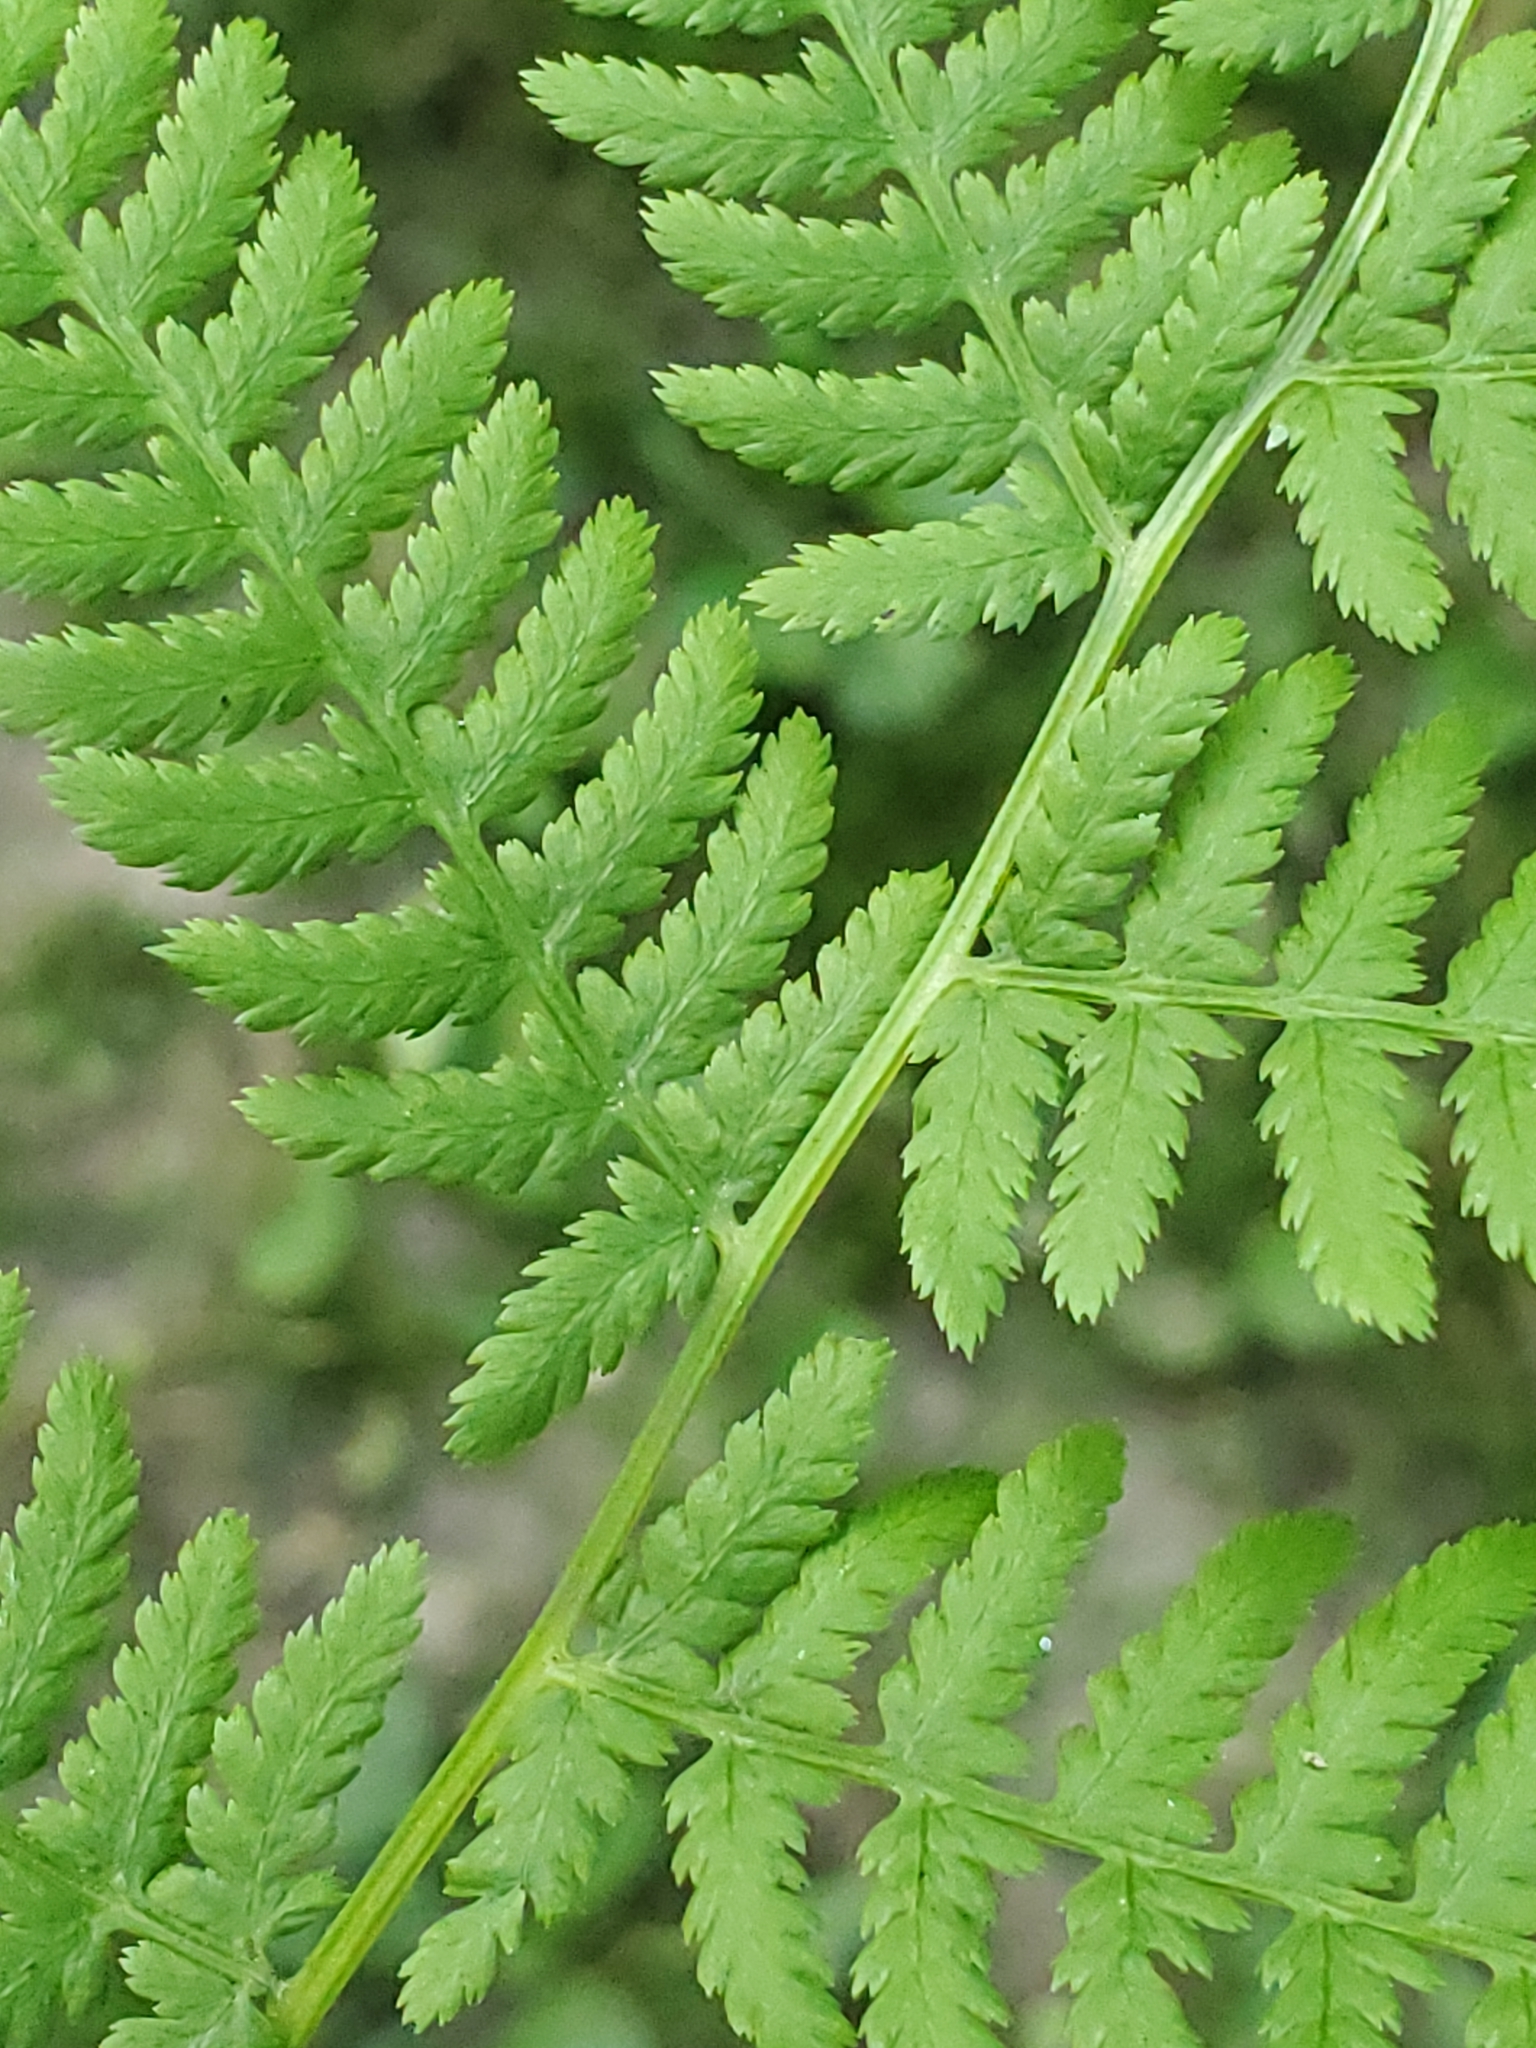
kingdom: Plantae
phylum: Tracheophyta
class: Polypodiopsida
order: Polypodiales
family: Athyriaceae
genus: Athyrium
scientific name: Athyrium angustum
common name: Northern lady fern
